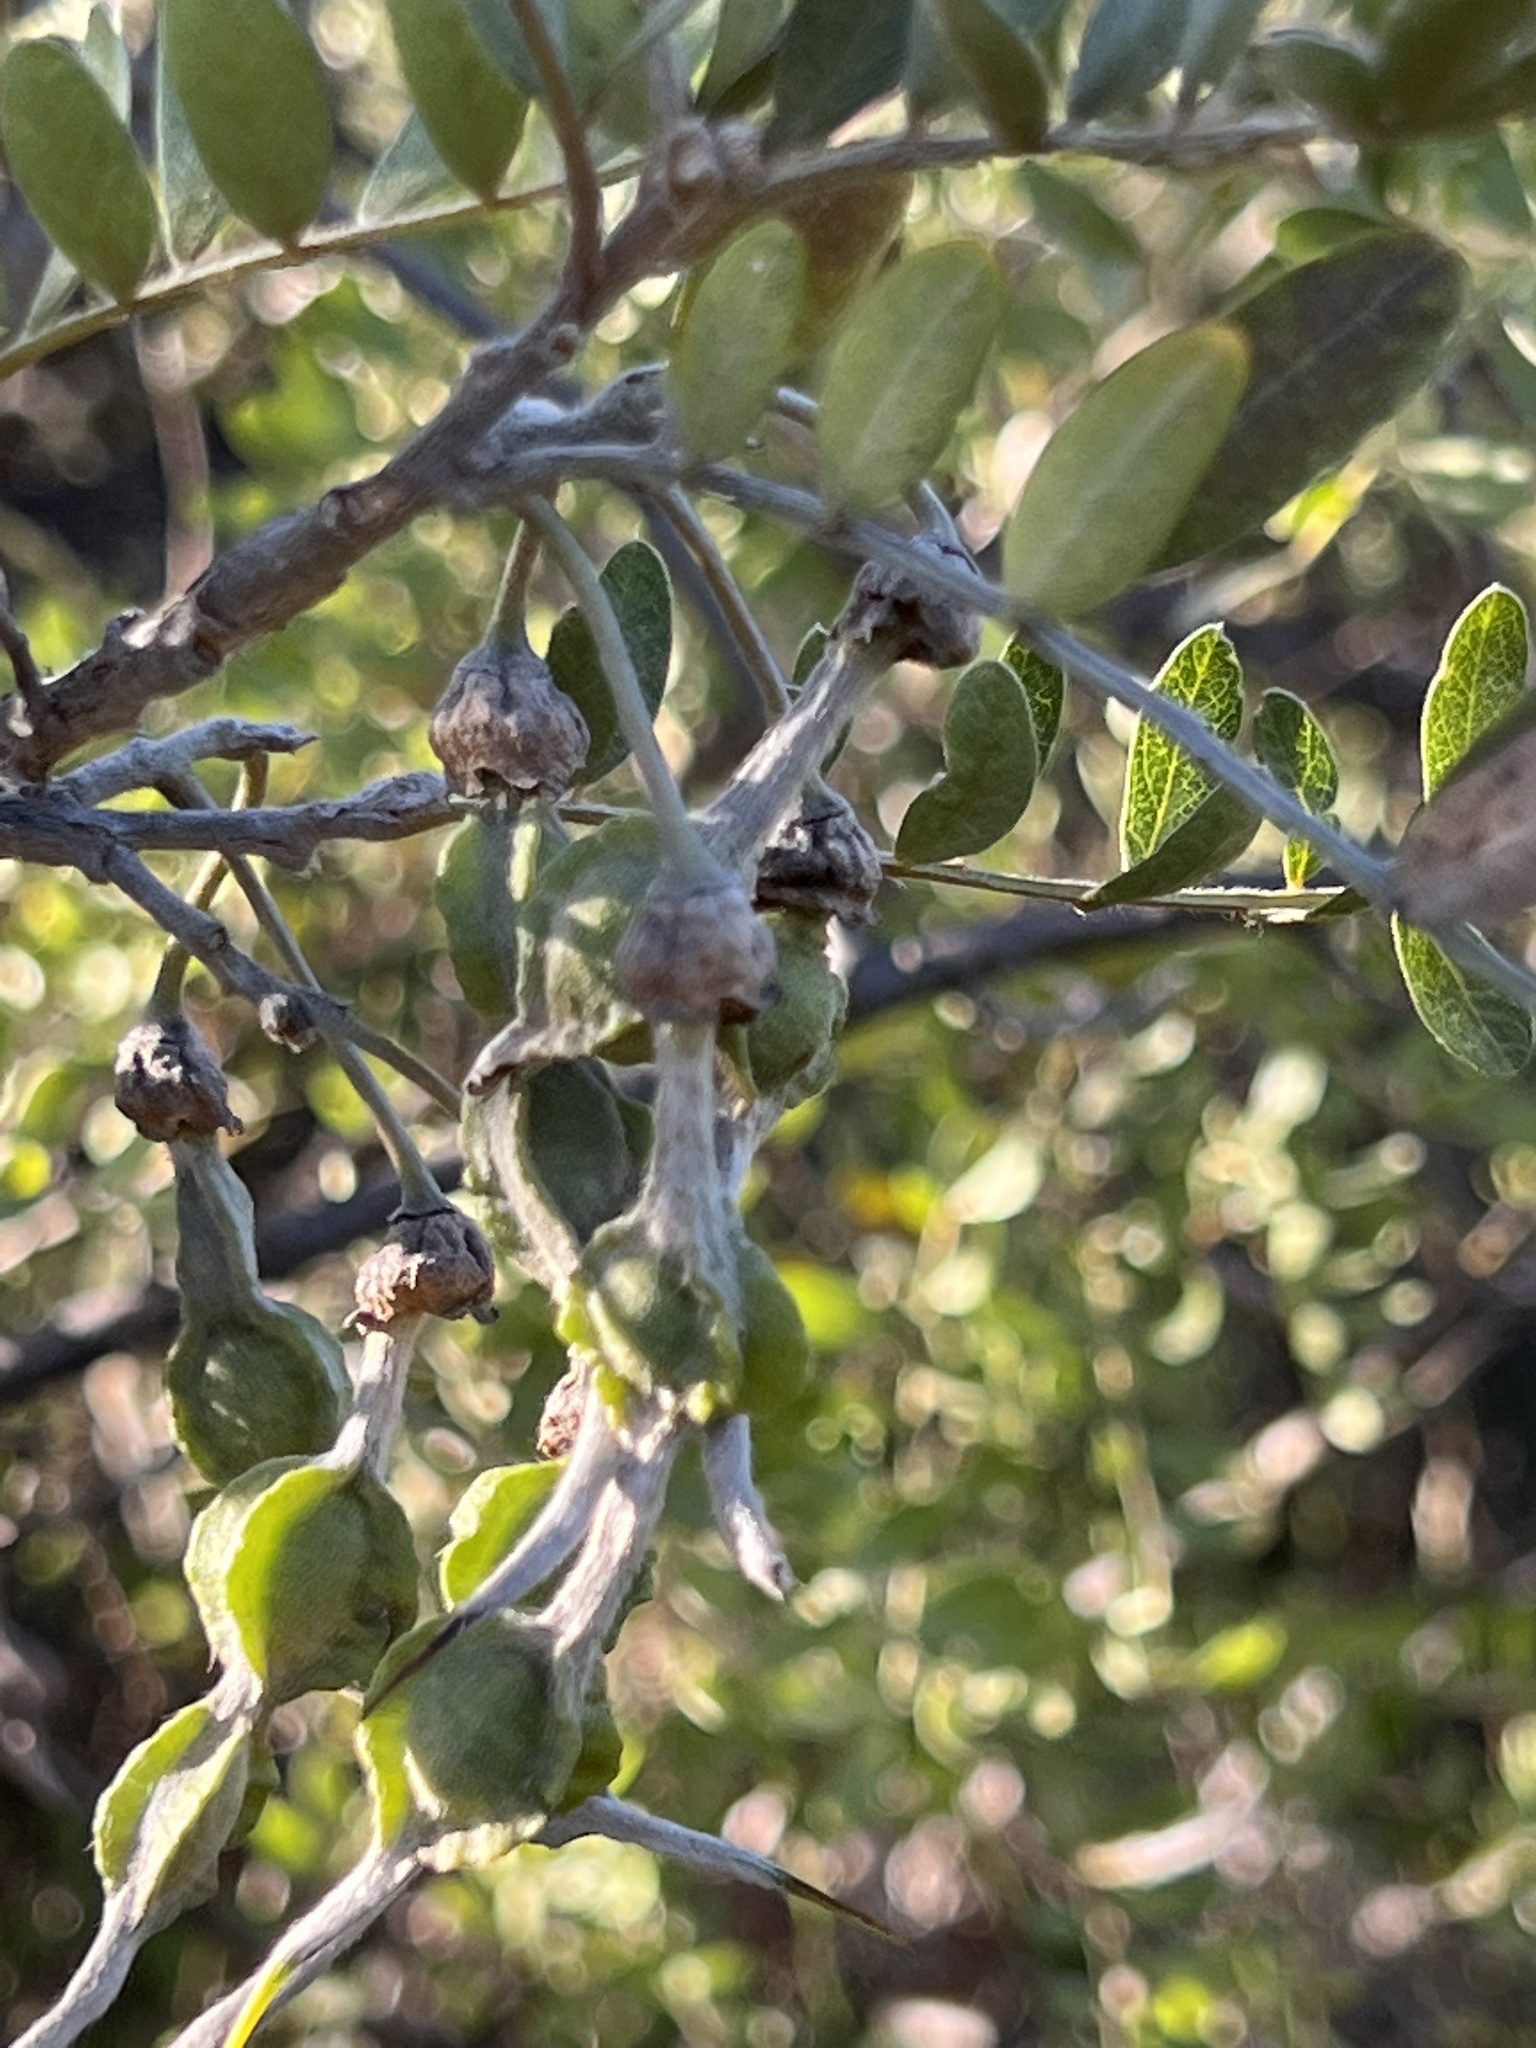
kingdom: Plantae
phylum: Tracheophyta
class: Magnoliopsida
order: Fabales
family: Fabaceae
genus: Sophora
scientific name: Sophora chrysophylla
